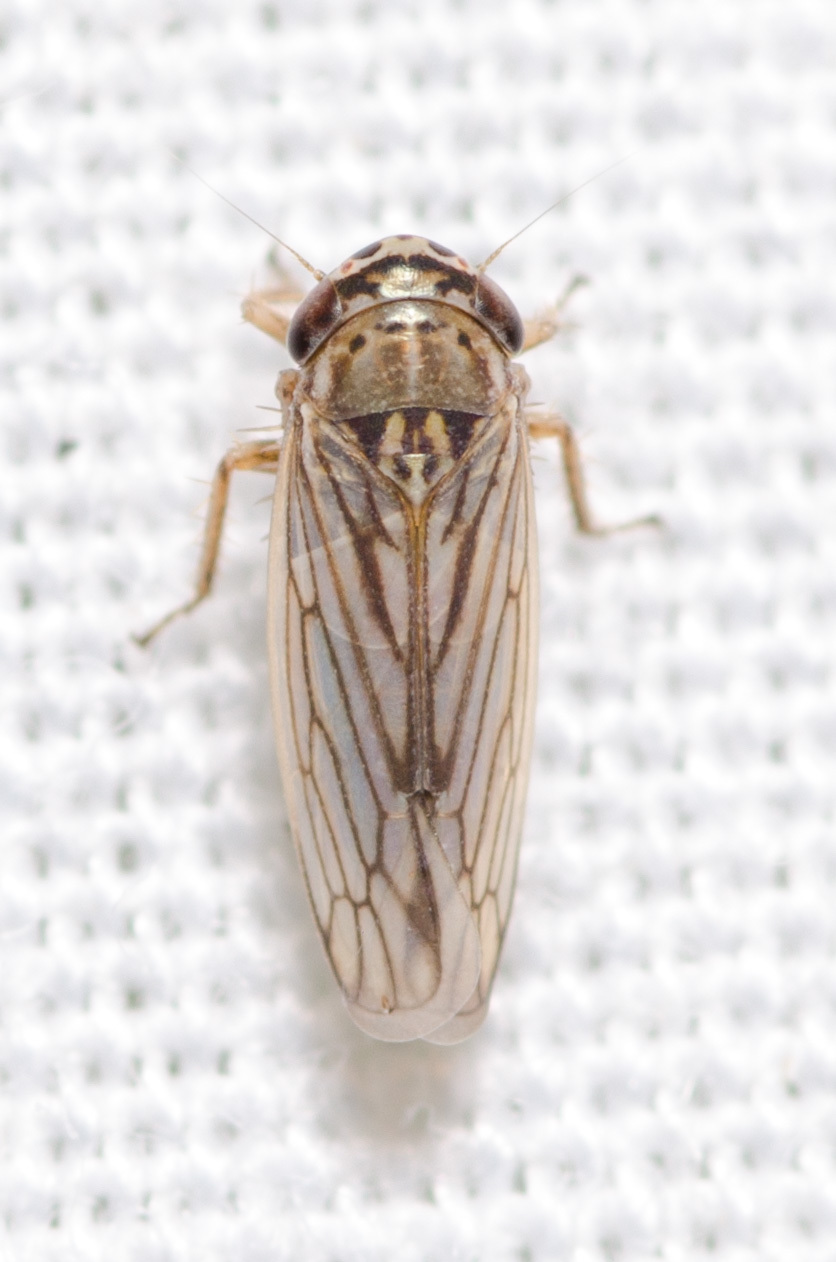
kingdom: Animalia
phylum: Arthropoda
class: Insecta
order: Hemiptera
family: Cicadellidae
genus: Exitianus
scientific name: Exitianus exitiosus
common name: Gray lawn leafhopper
